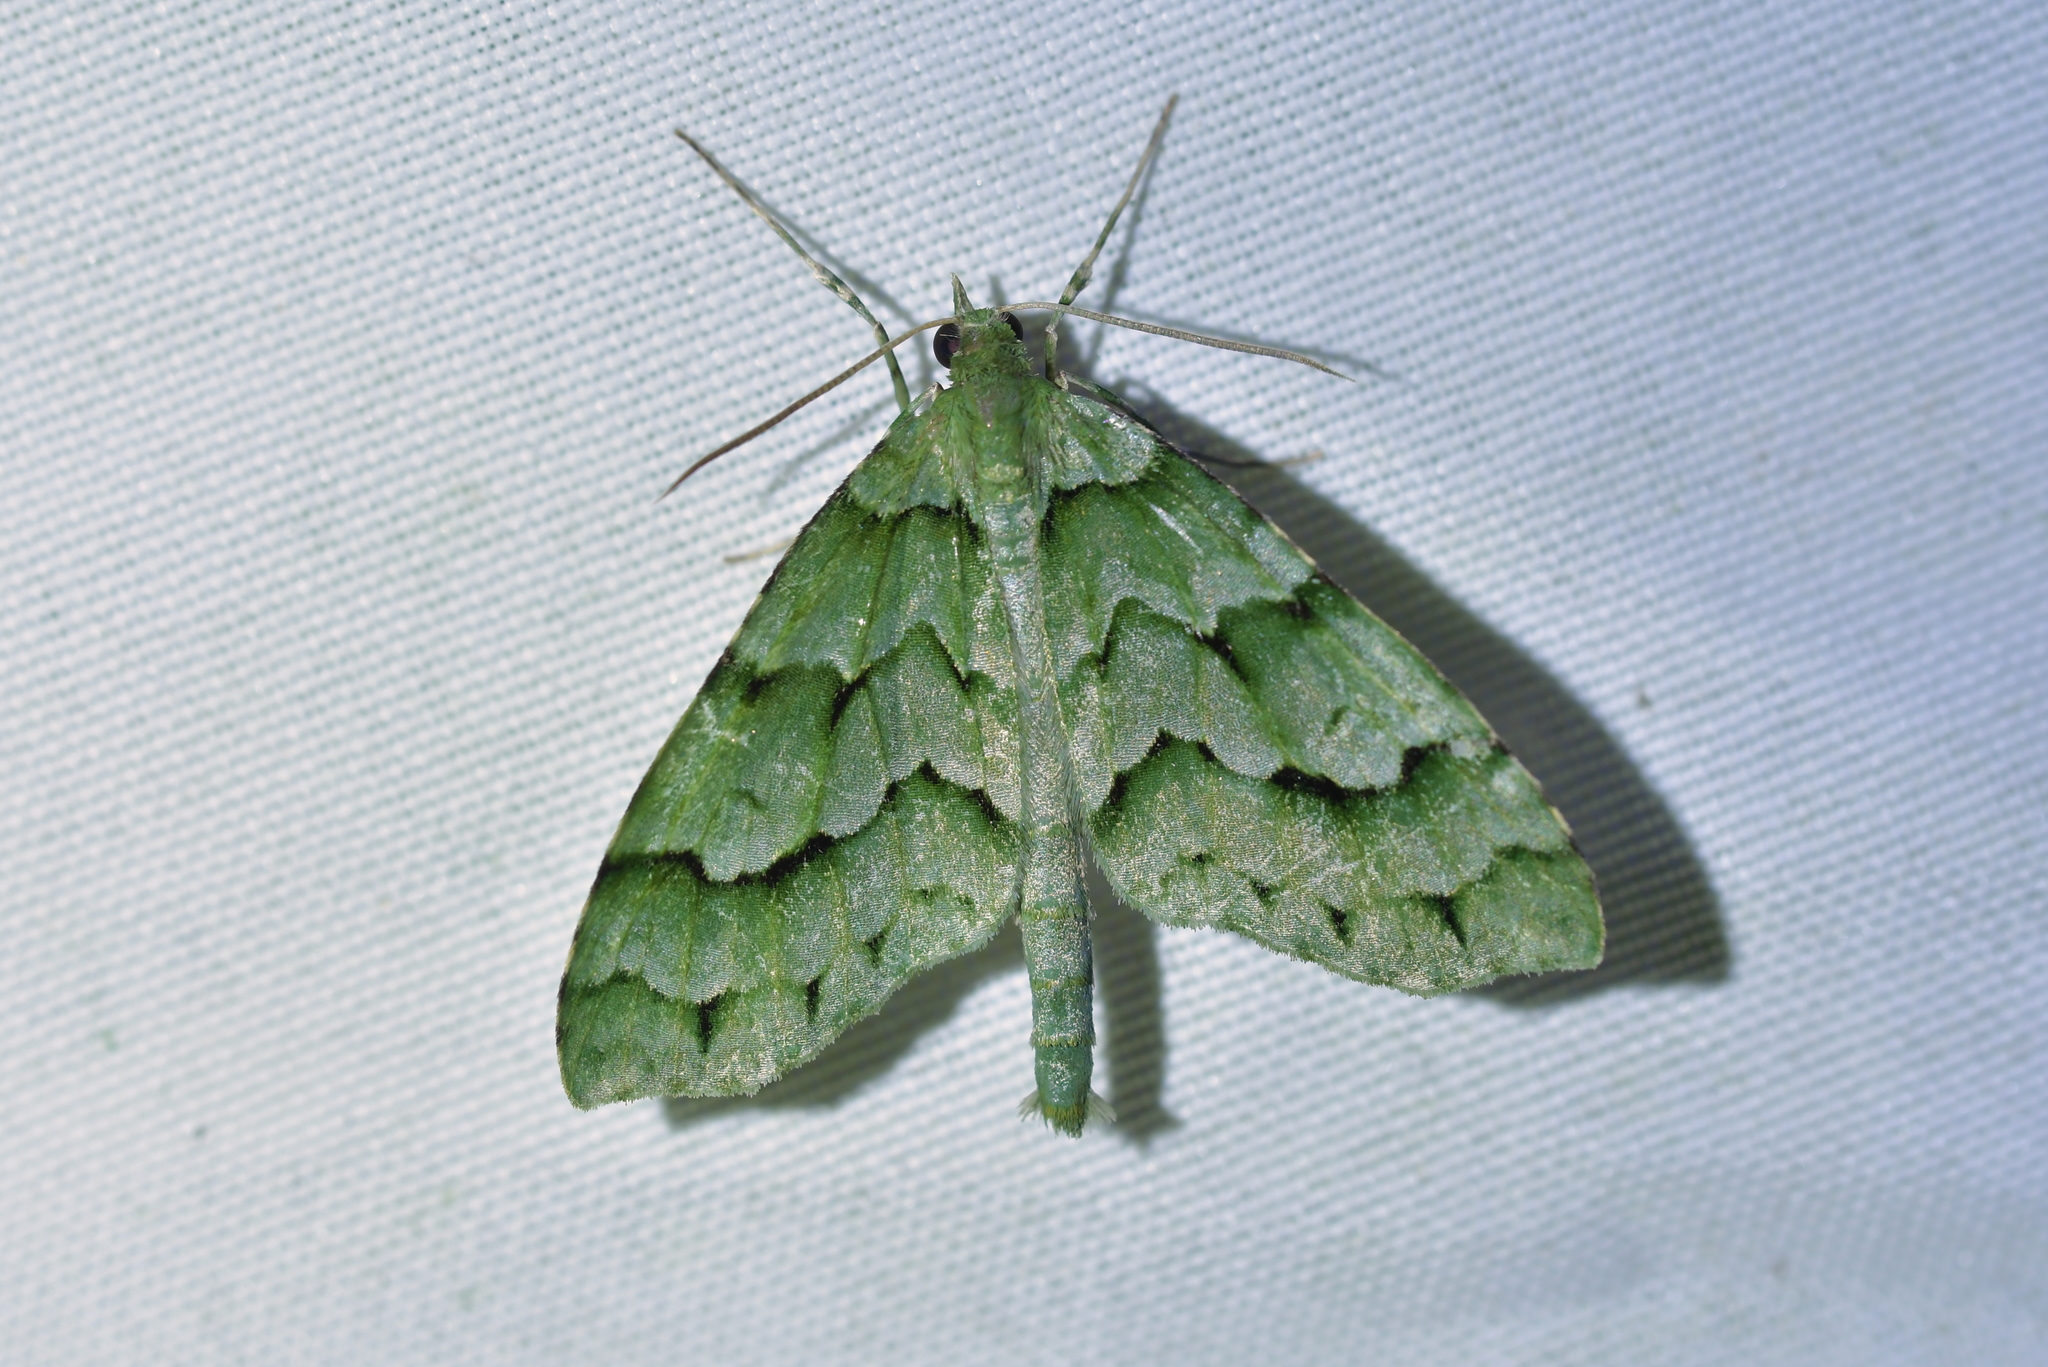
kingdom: Animalia
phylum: Arthropoda
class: Insecta
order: Lepidoptera
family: Geometridae
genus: Tatosoma
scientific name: Tatosoma lestevata
